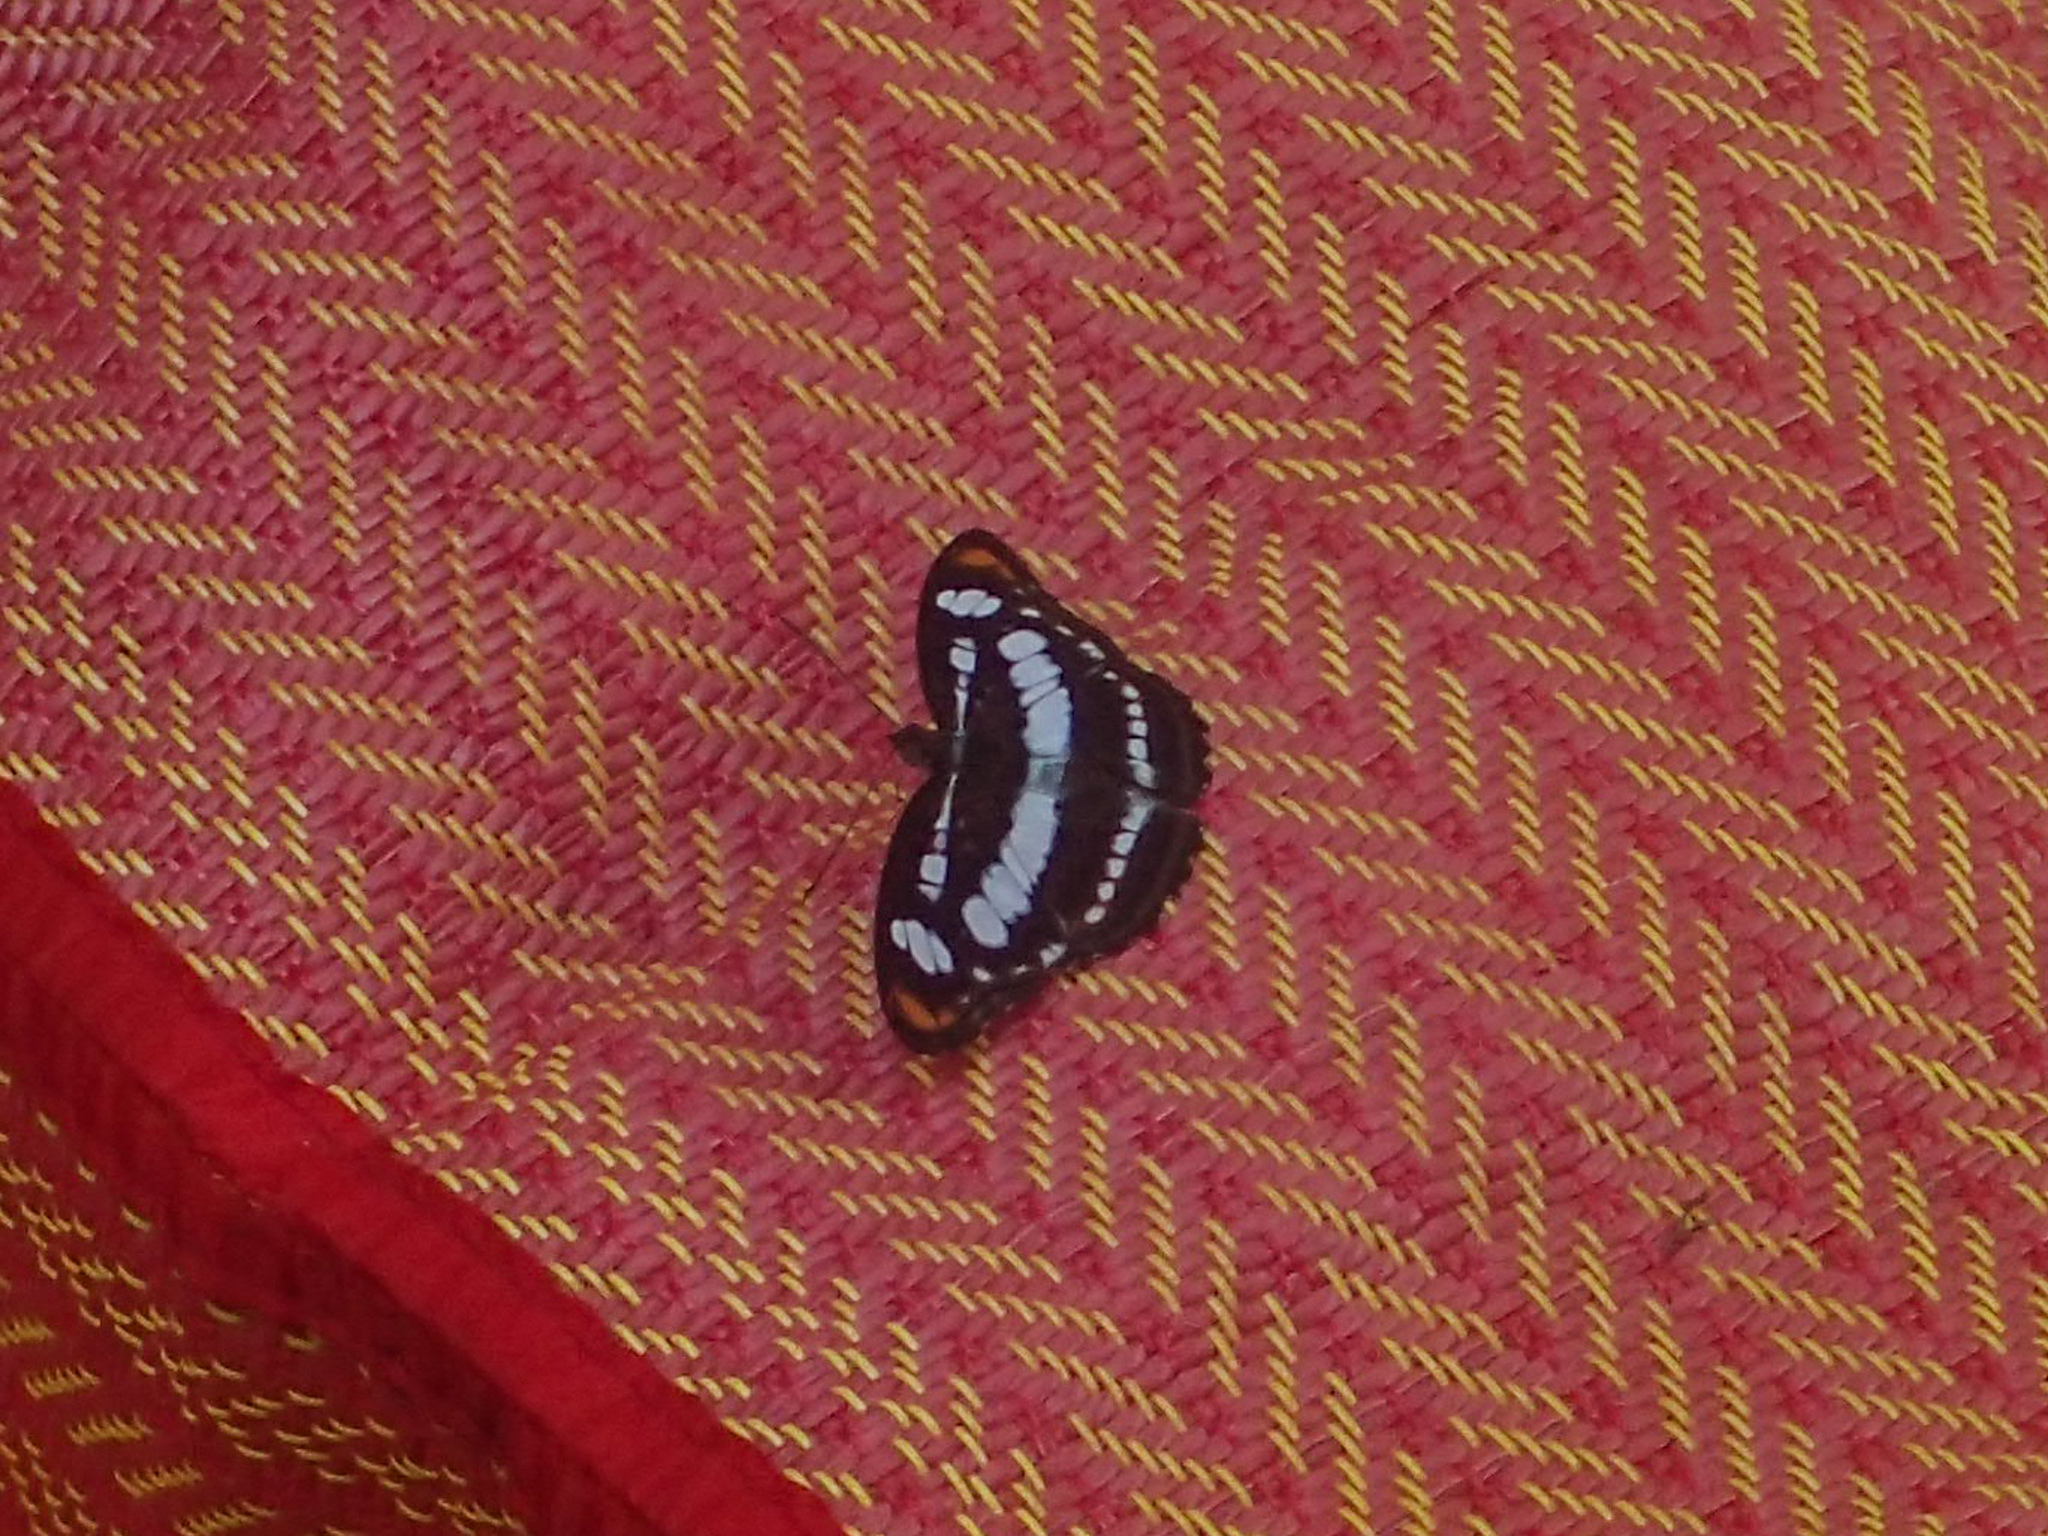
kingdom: Animalia
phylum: Arthropoda
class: Insecta
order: Lepidoptera
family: Nymphalidae
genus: Parathyma
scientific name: Parathyma nefte
